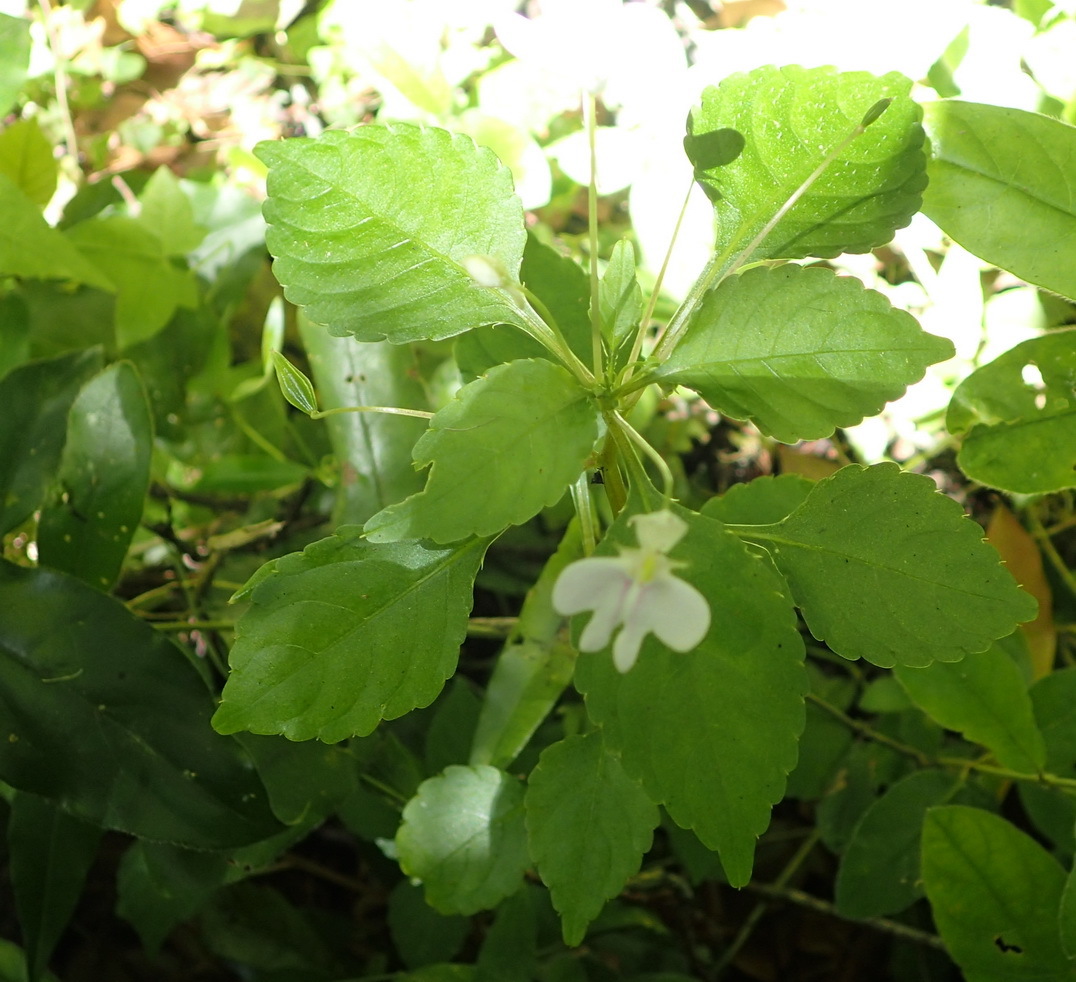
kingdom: Plantae
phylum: Tracheophyta
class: Magnoliopsida
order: Ericales
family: Balsaminaceae
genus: Impatiens
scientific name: Impatiens hochstetteri
